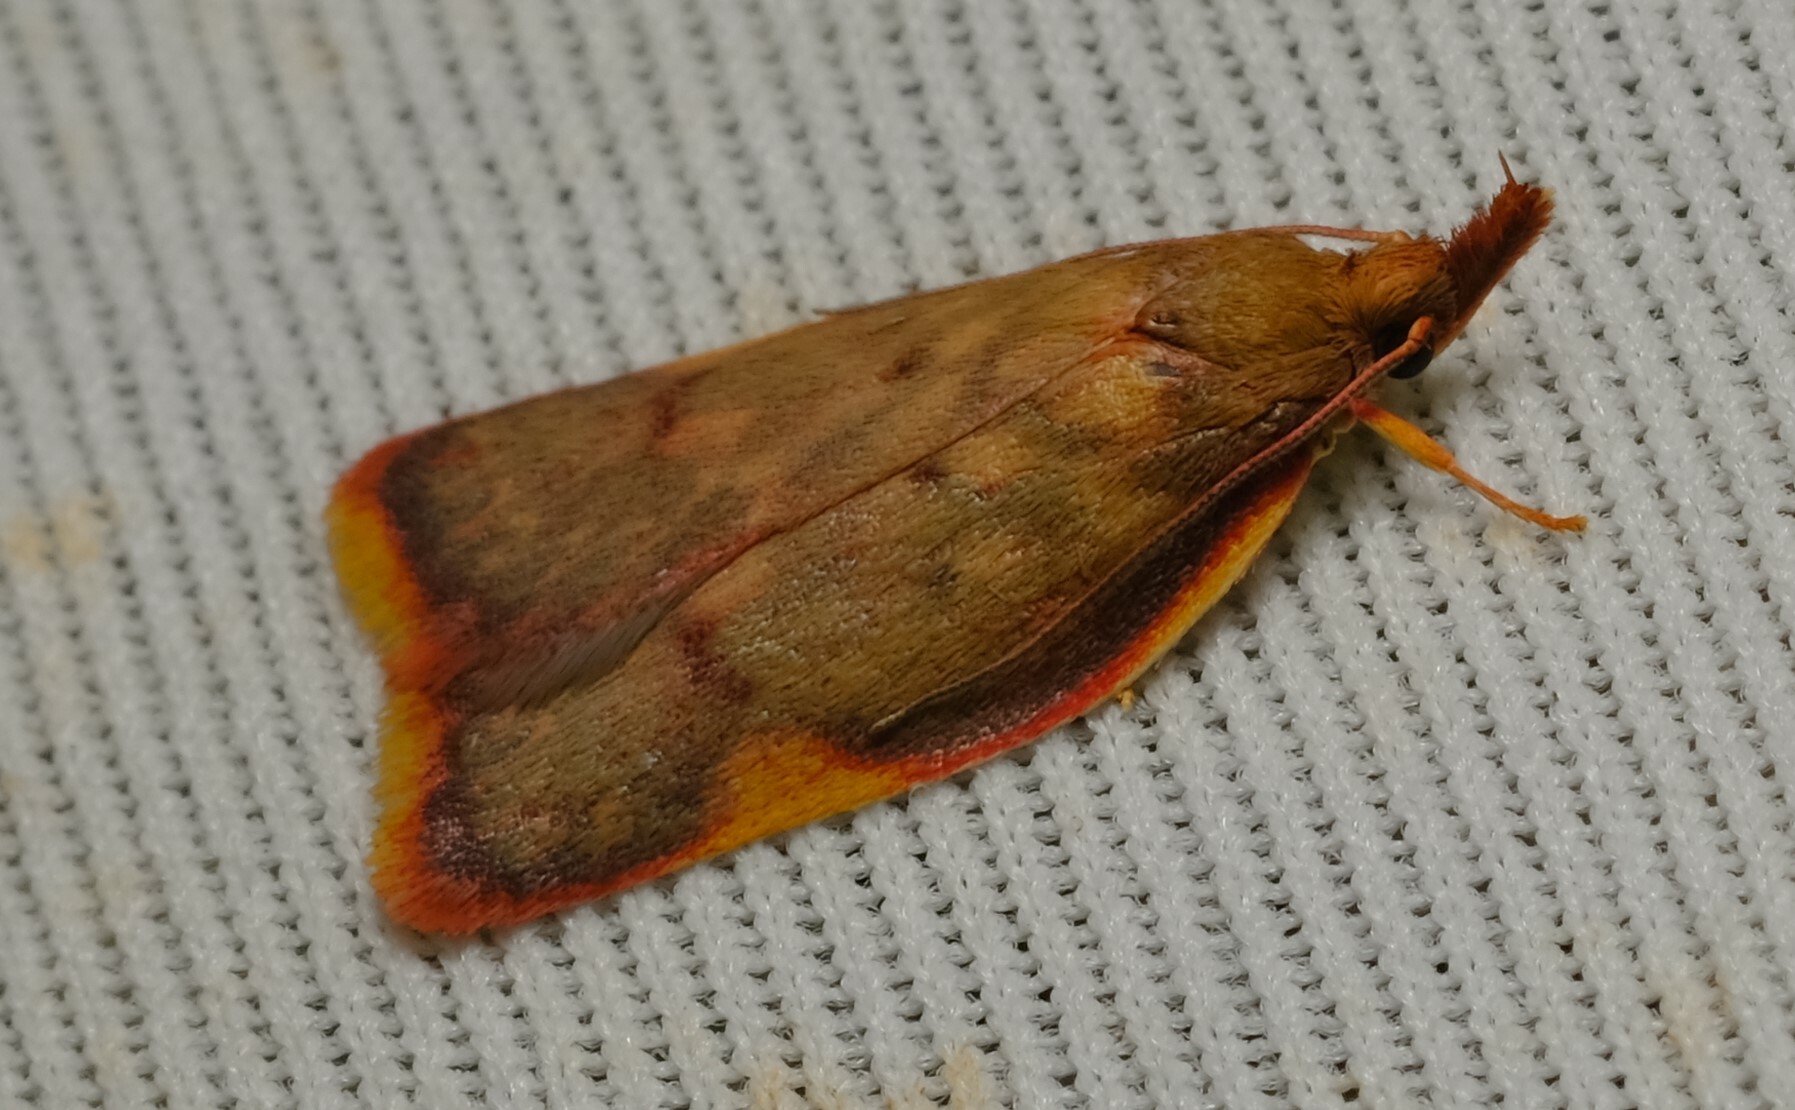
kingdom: Animalia
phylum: Arthropoda
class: Insecta
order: Lepidoptera
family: Depressariidae
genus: Enchocrates
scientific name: Enchocrates phaedryntis
